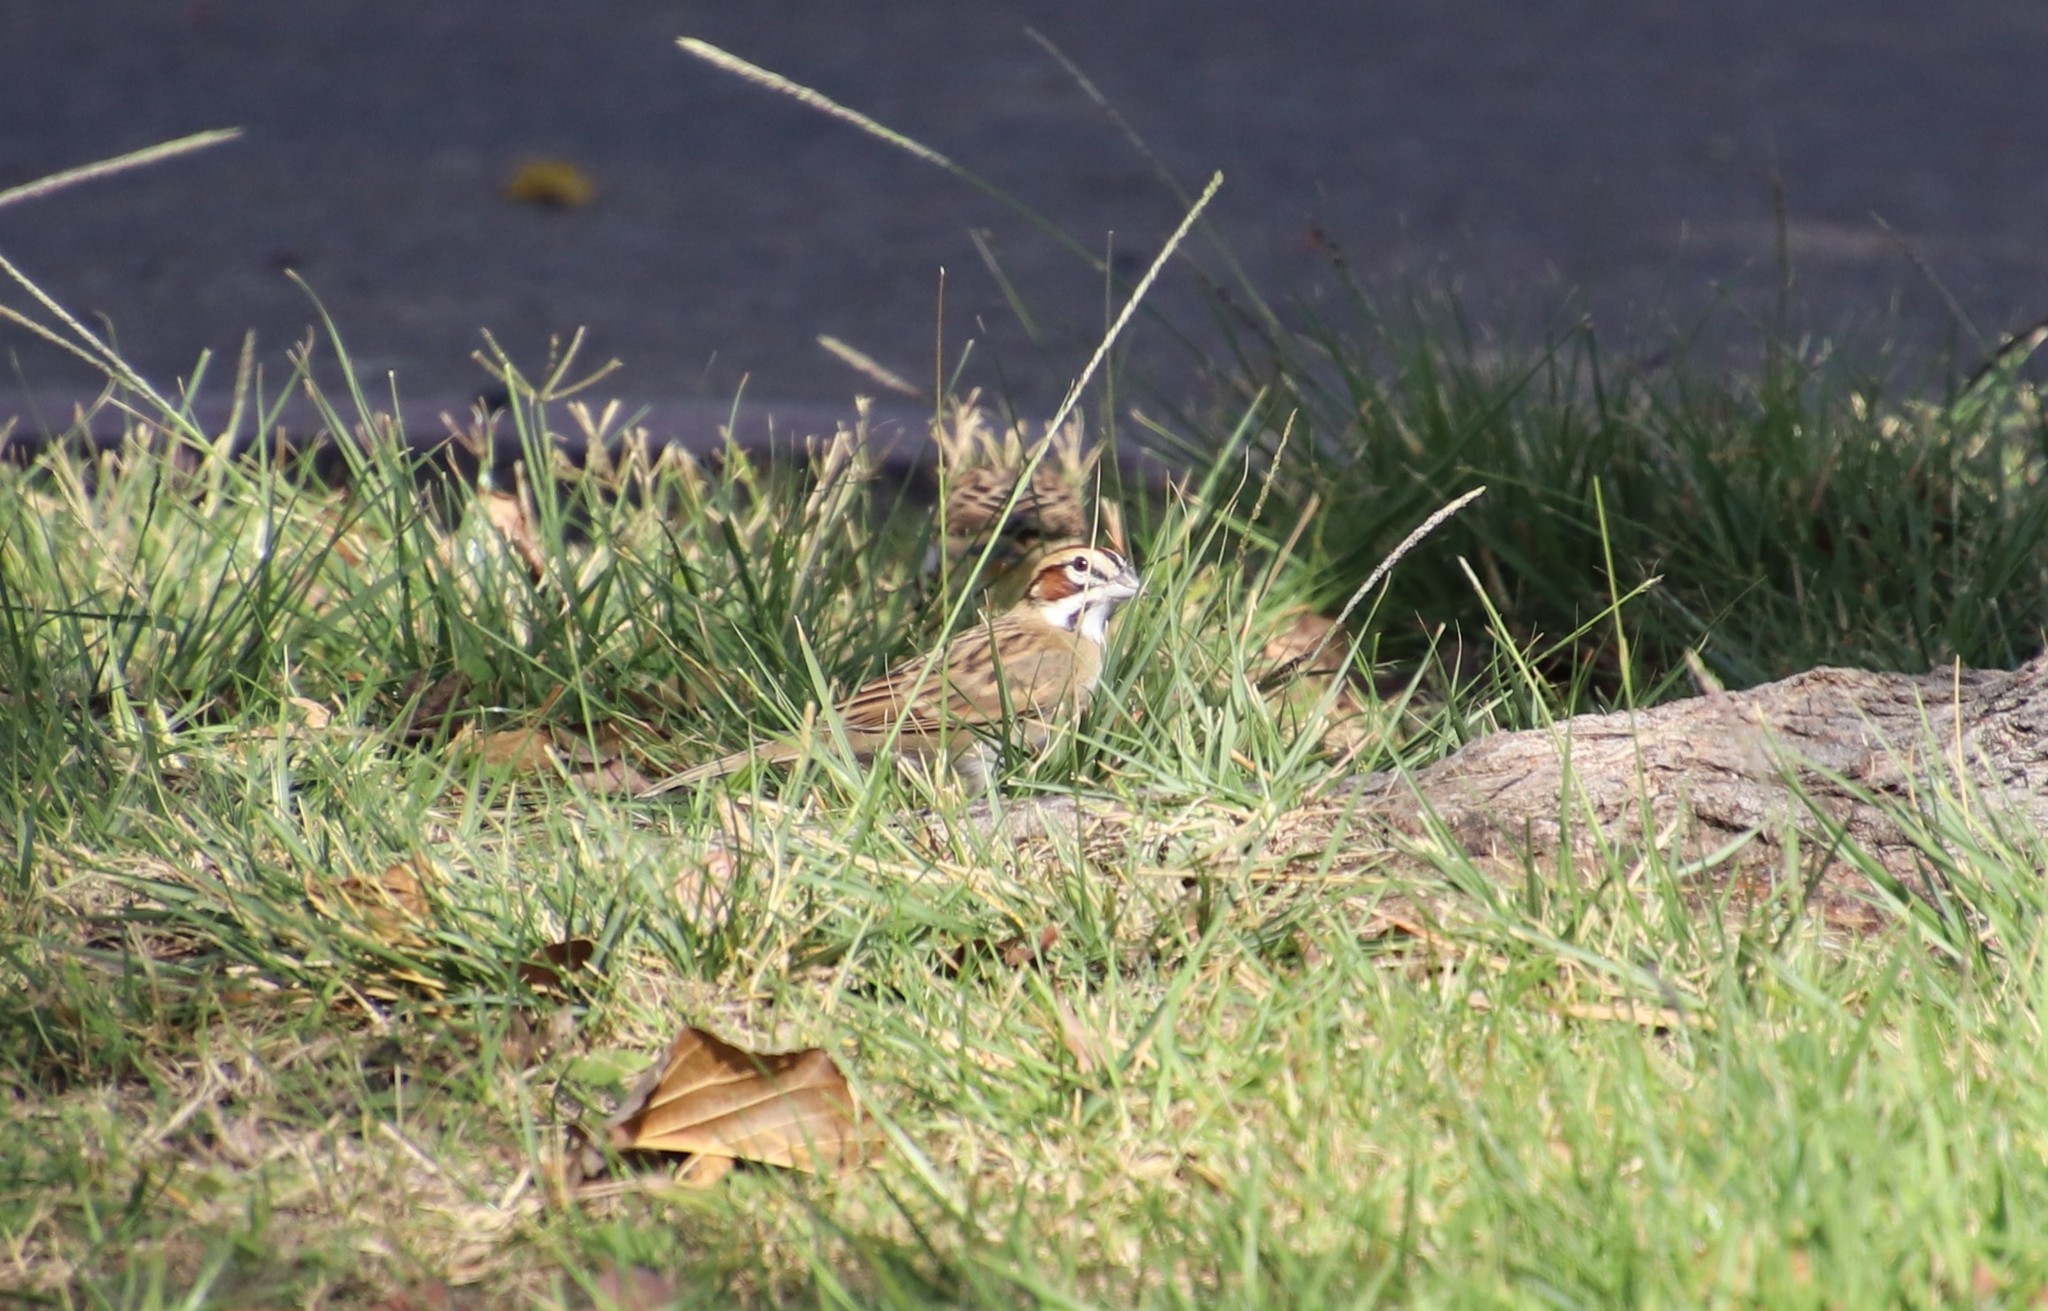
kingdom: Animalia
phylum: Chordata
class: Aves
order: Passeriformes
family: Passerellidae
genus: Chondestes
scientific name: Chondestes grammacus
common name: Lark sparrow
